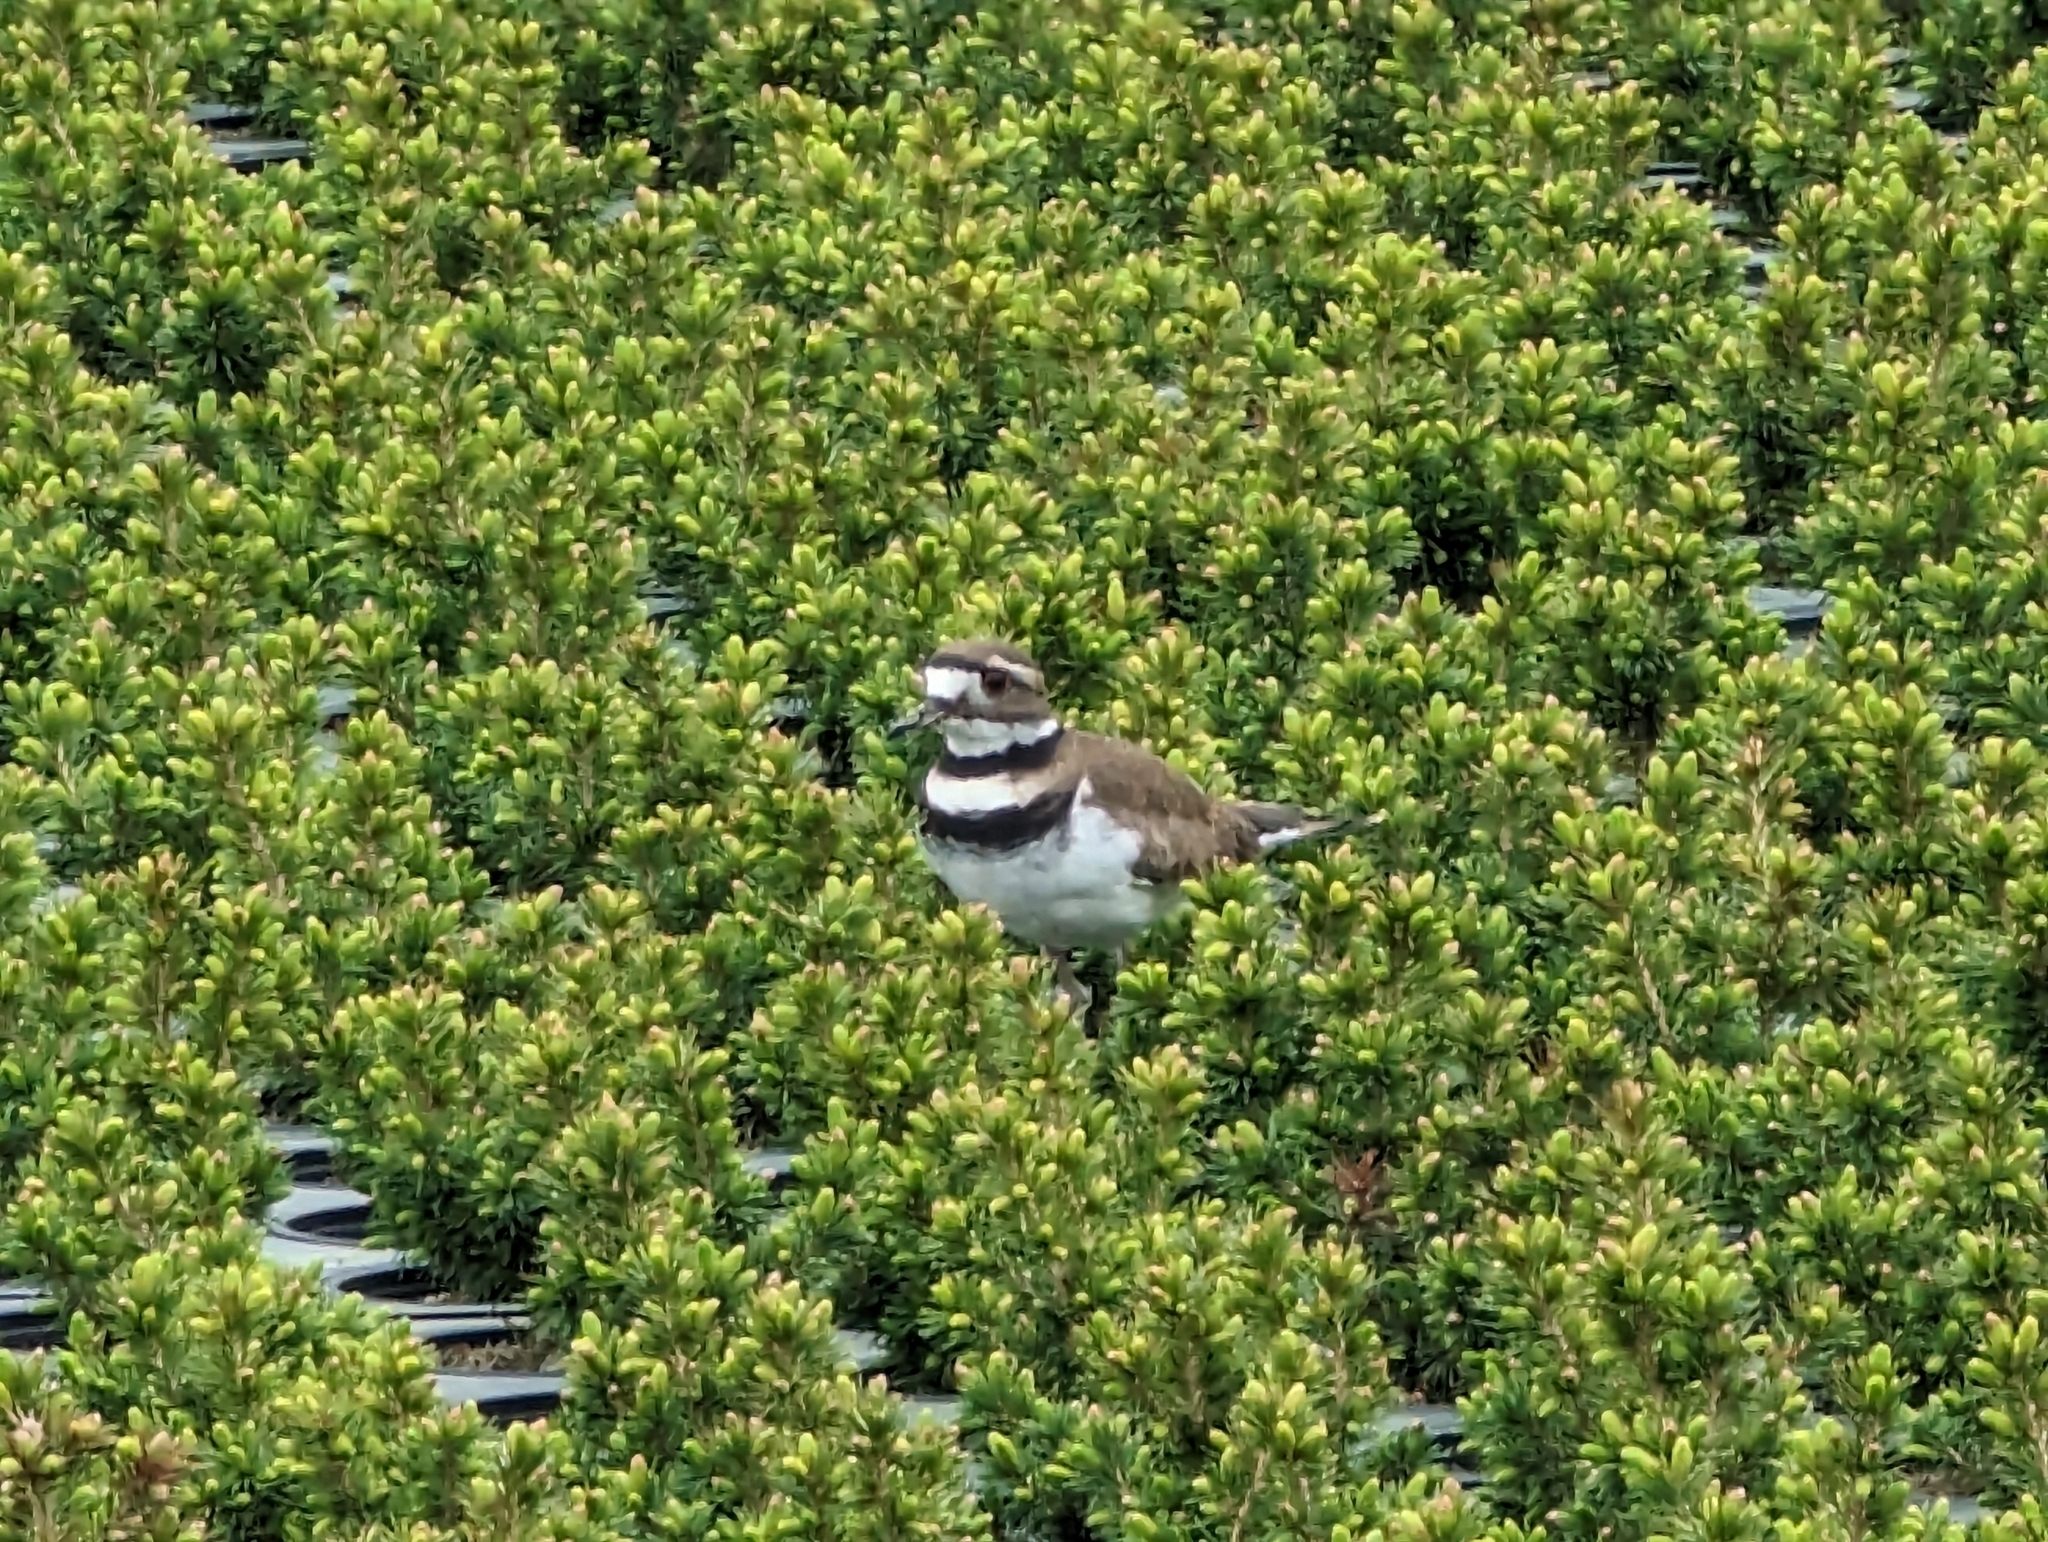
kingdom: Animalia
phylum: Chordata
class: Aves
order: Charadriiformes
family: Charadriidae
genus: Charadrius
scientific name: Charadrius vociferus
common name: Killdeer
